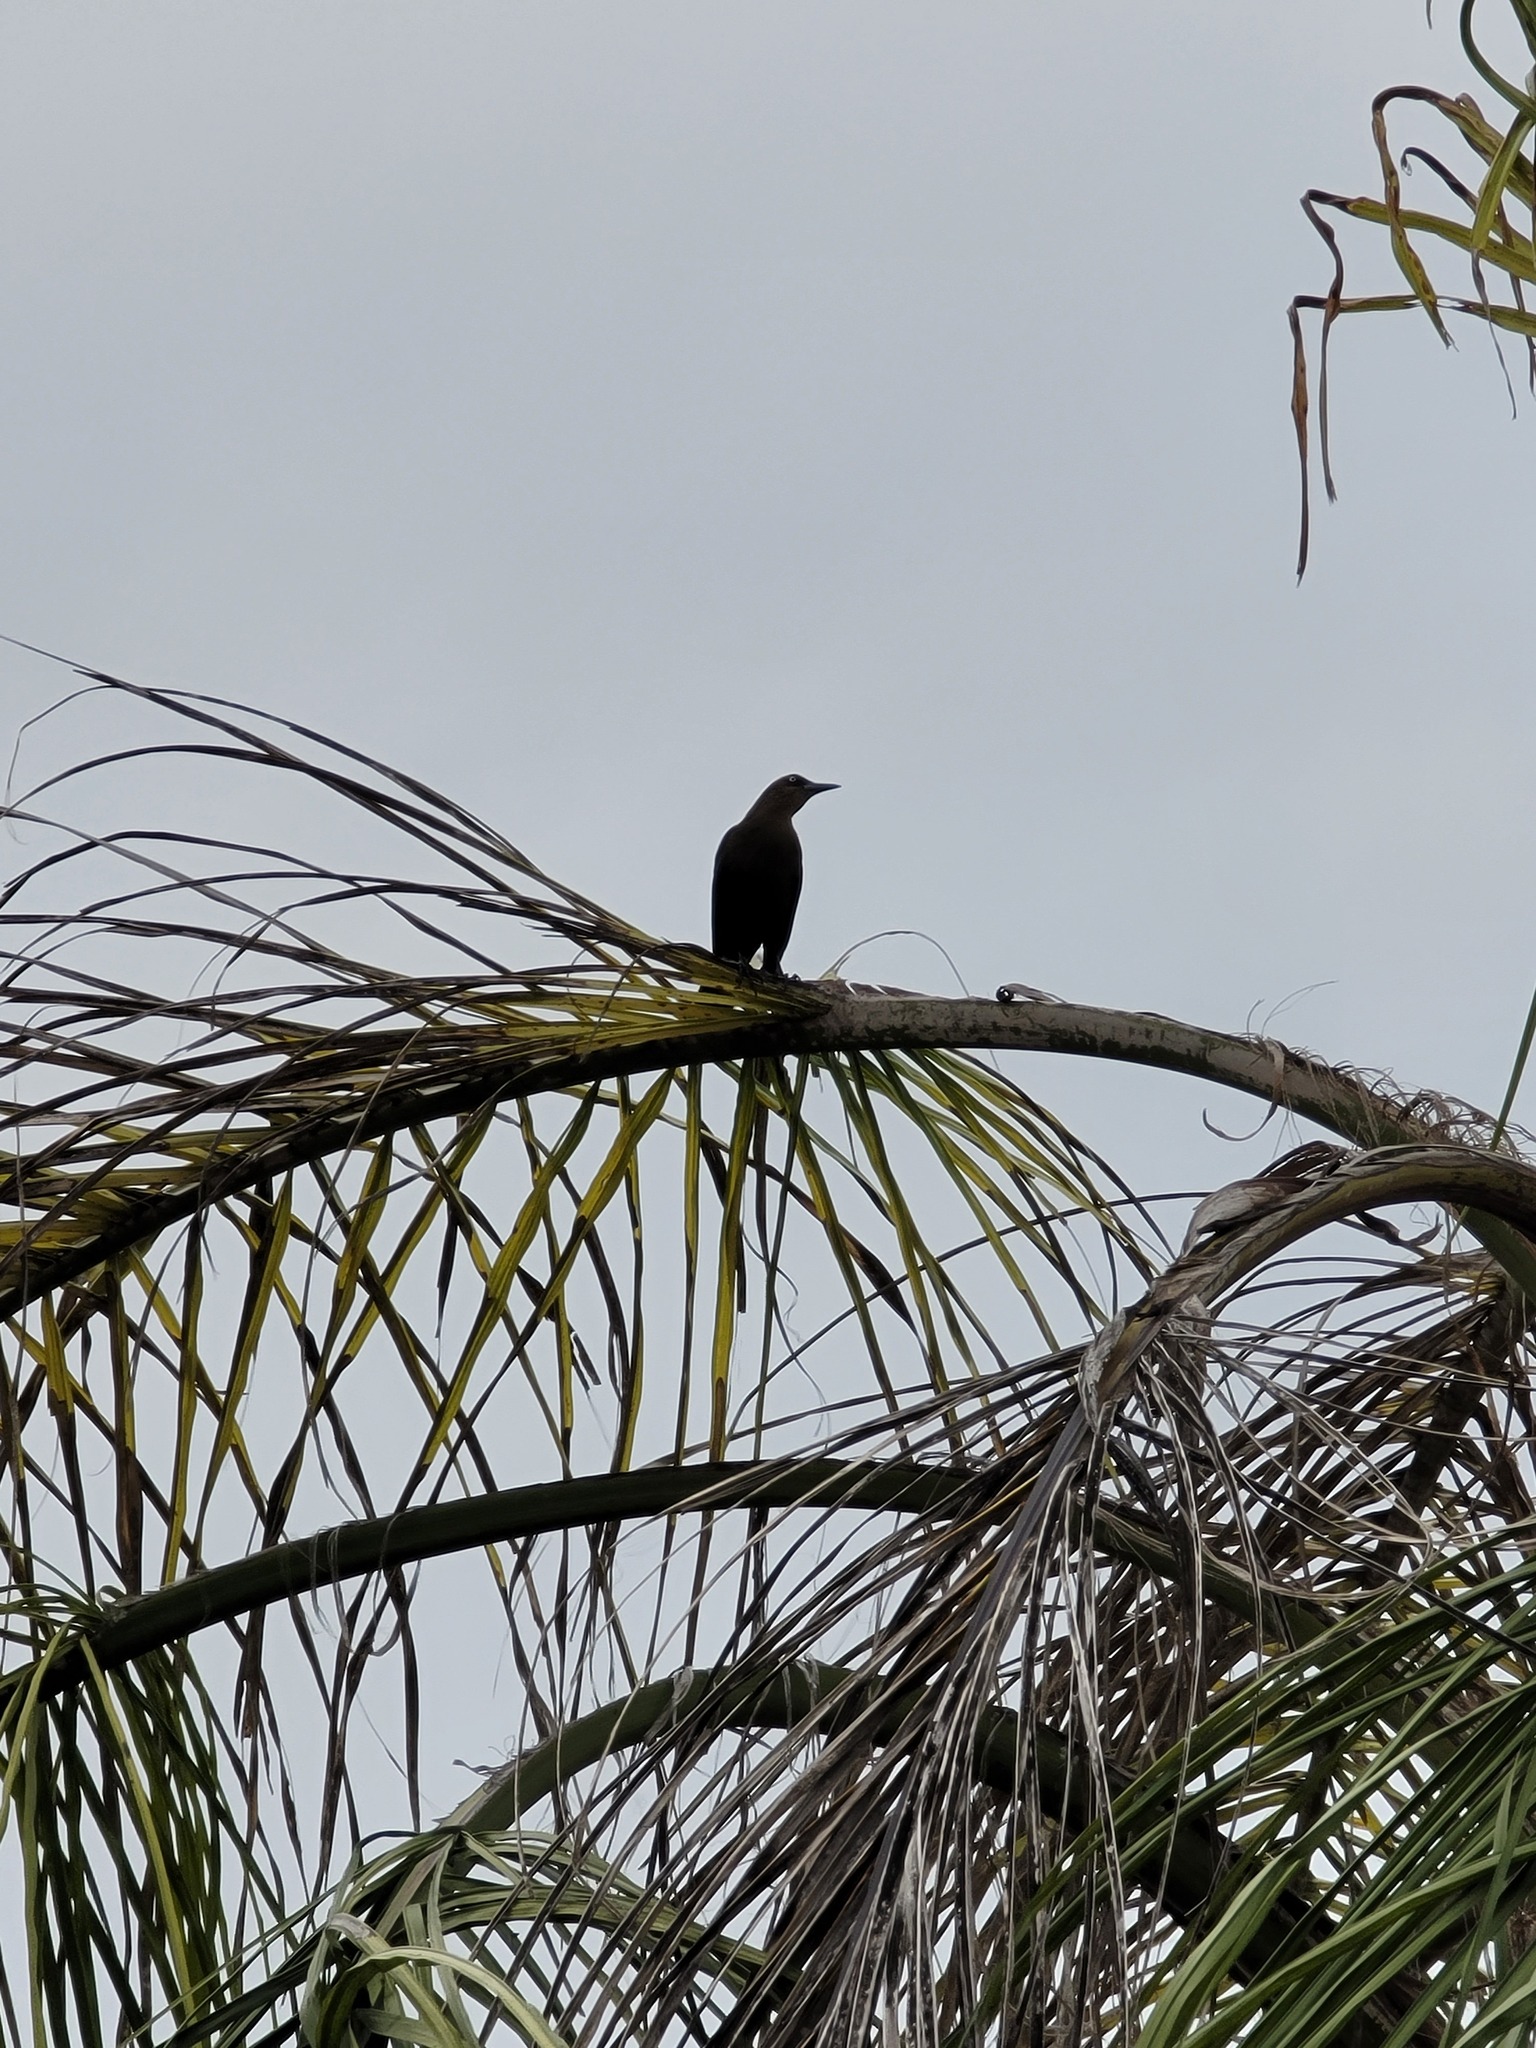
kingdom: Animalia
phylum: Chordata
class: Aves
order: Passeriformes
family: Icteridae
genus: Quiscalus
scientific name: Quiscalus mexicanus
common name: Great-tailed grackle
